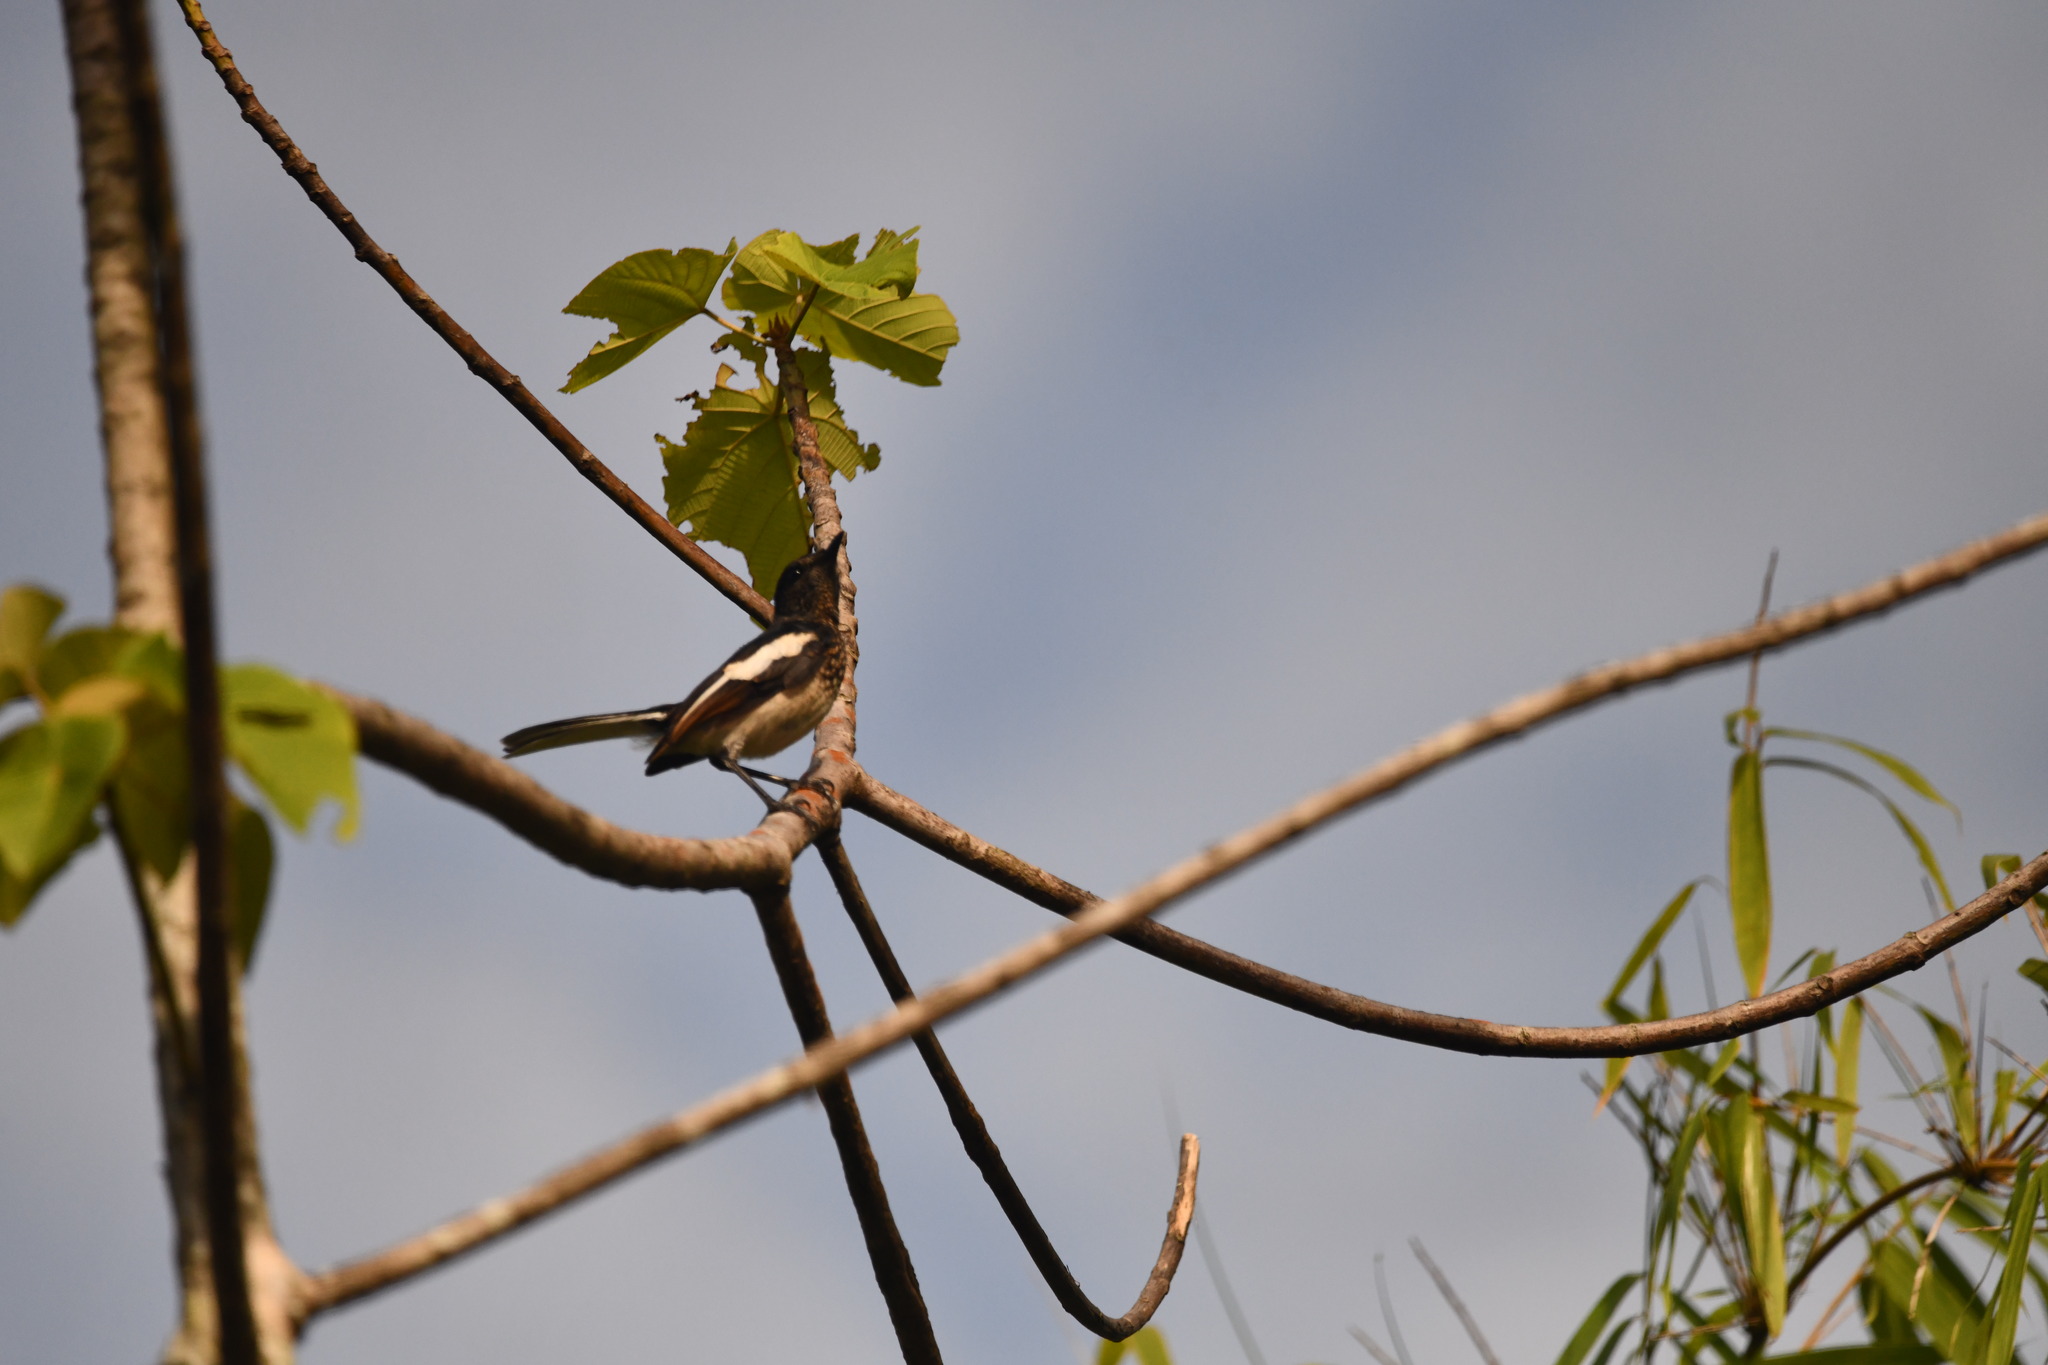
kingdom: Animalia
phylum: Chordata
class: Aves
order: Passeriformes
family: Muscicapidae
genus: Copsychus
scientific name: Copsychus saularis
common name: Oriental magpie-robin
